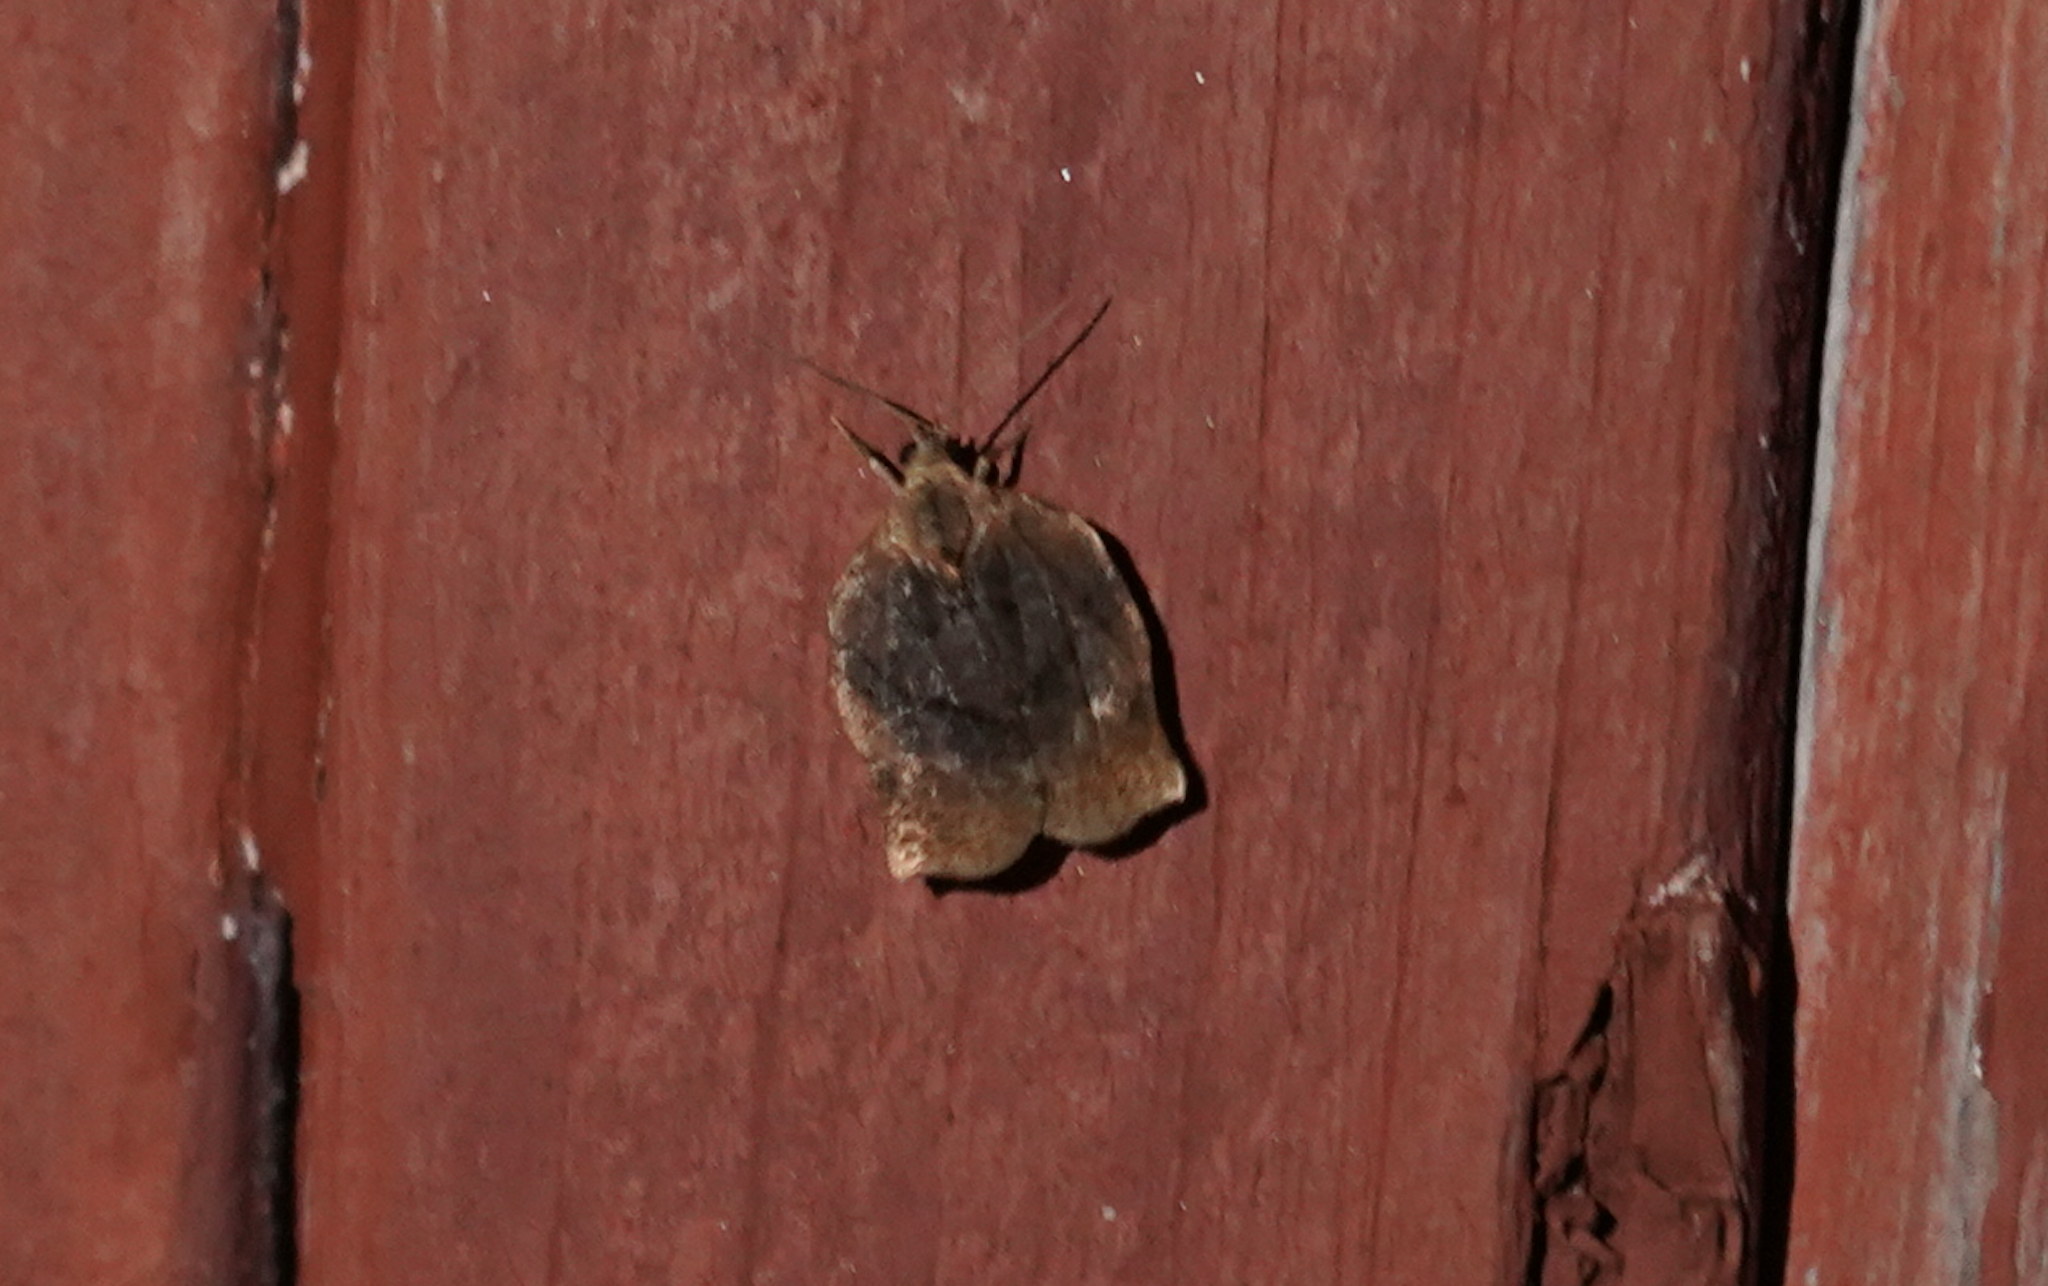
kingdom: Animalia
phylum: Arthropoda
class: Insecta
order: Lepidoptera
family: Tortricidae
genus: Archips
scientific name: Archips purpurana
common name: Omnivorous leafroller
